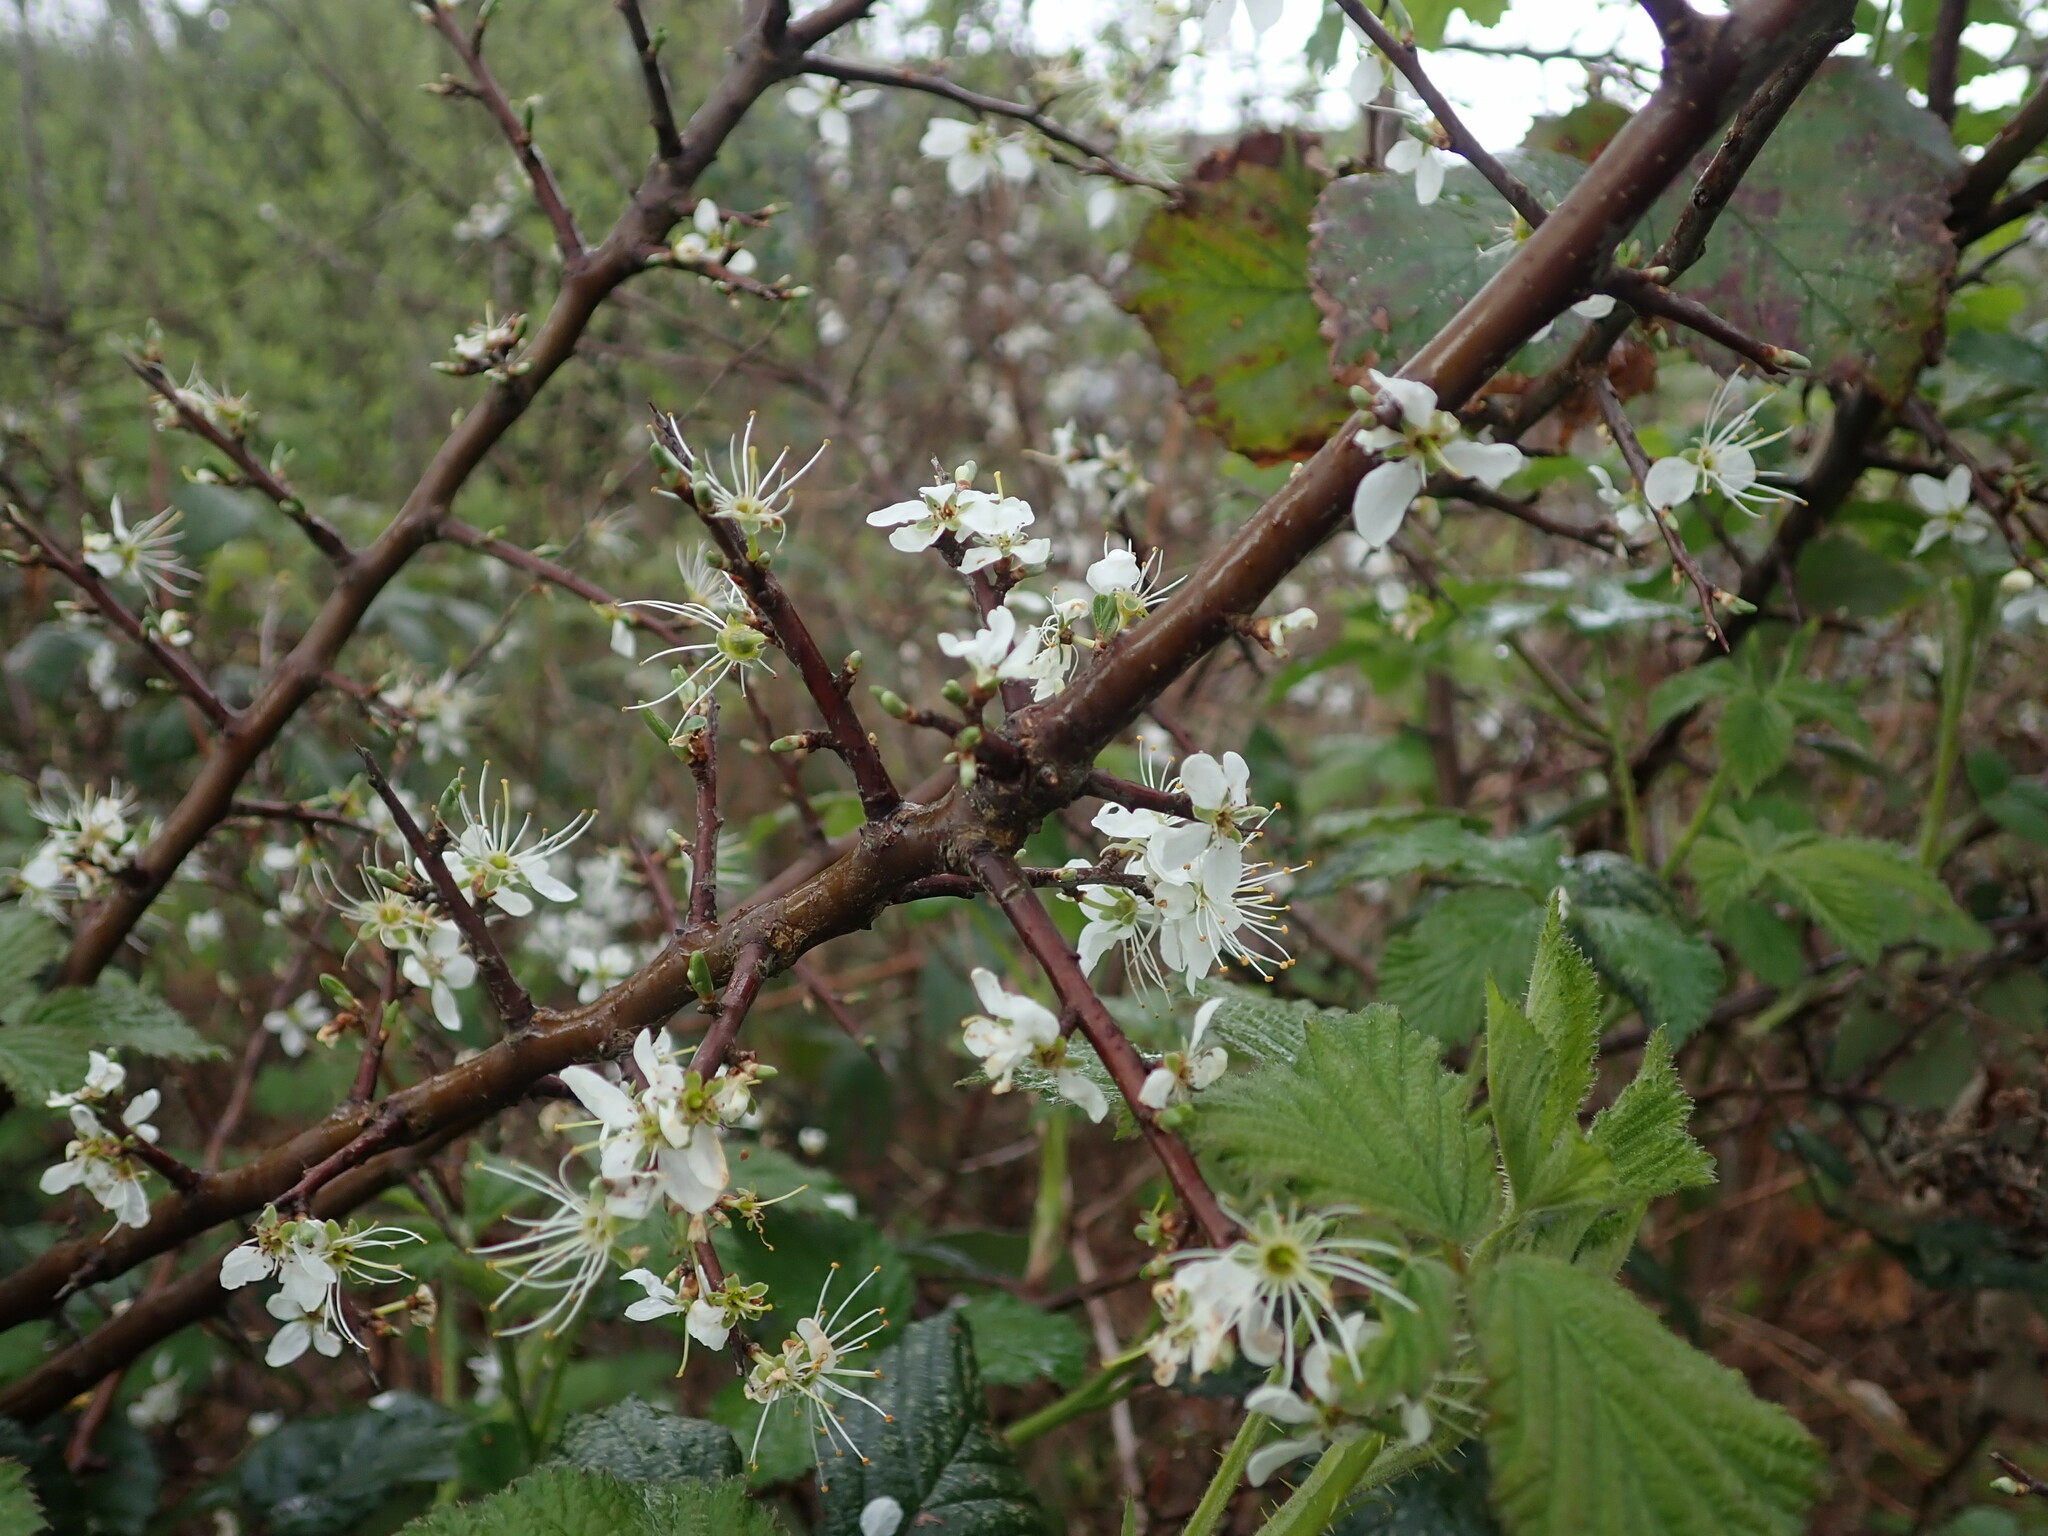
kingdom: Plantae
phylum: Tracheophyta
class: Magnoliopsida
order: Rosales
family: Rosaceae
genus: Prunus
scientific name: Prunus spinosa
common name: Blackthorn
